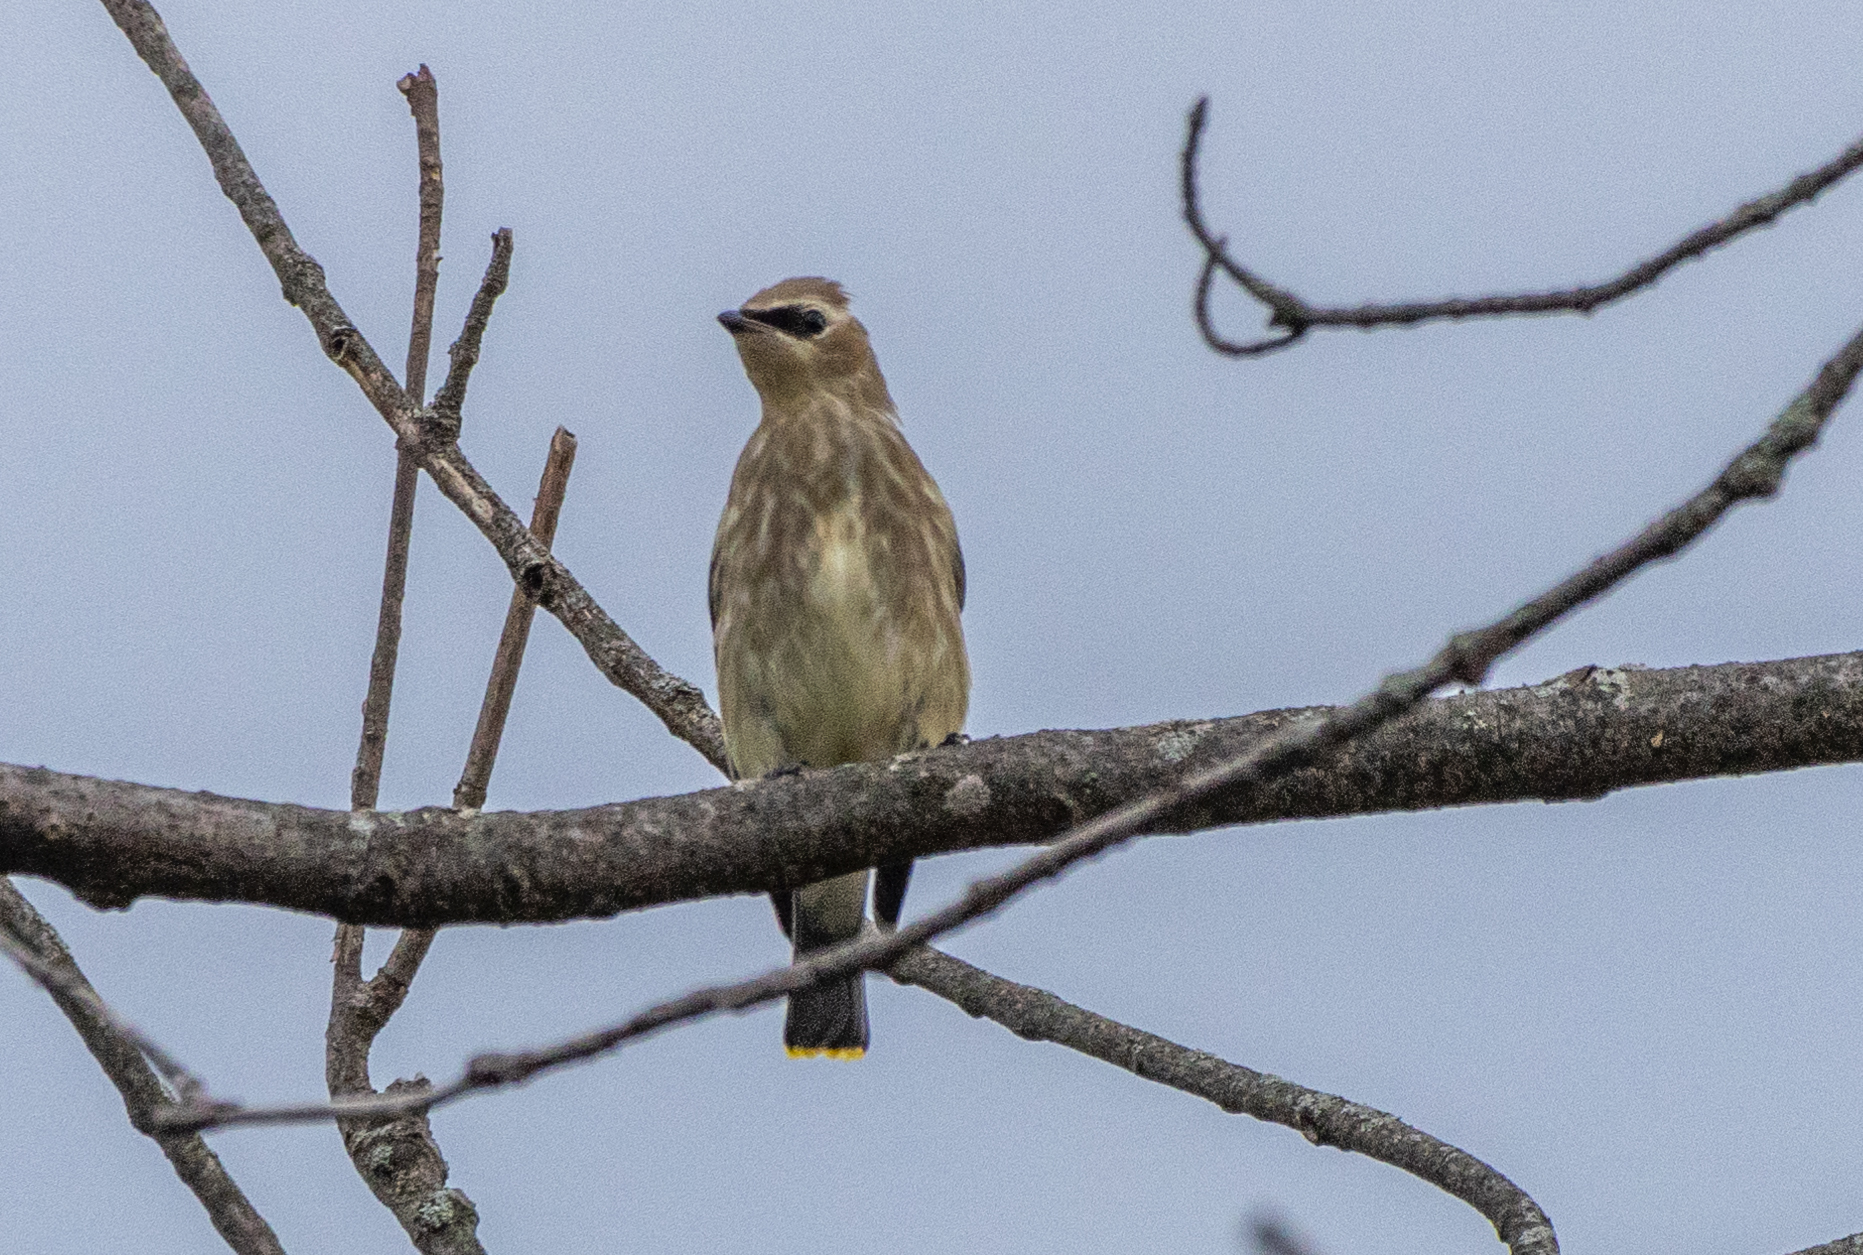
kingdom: Animalia
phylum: Chordata
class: Aves
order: Passeriformes
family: Bombycillidae
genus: Bombycilla
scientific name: Bombycilla cedrorum
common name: Cedar waxwing
